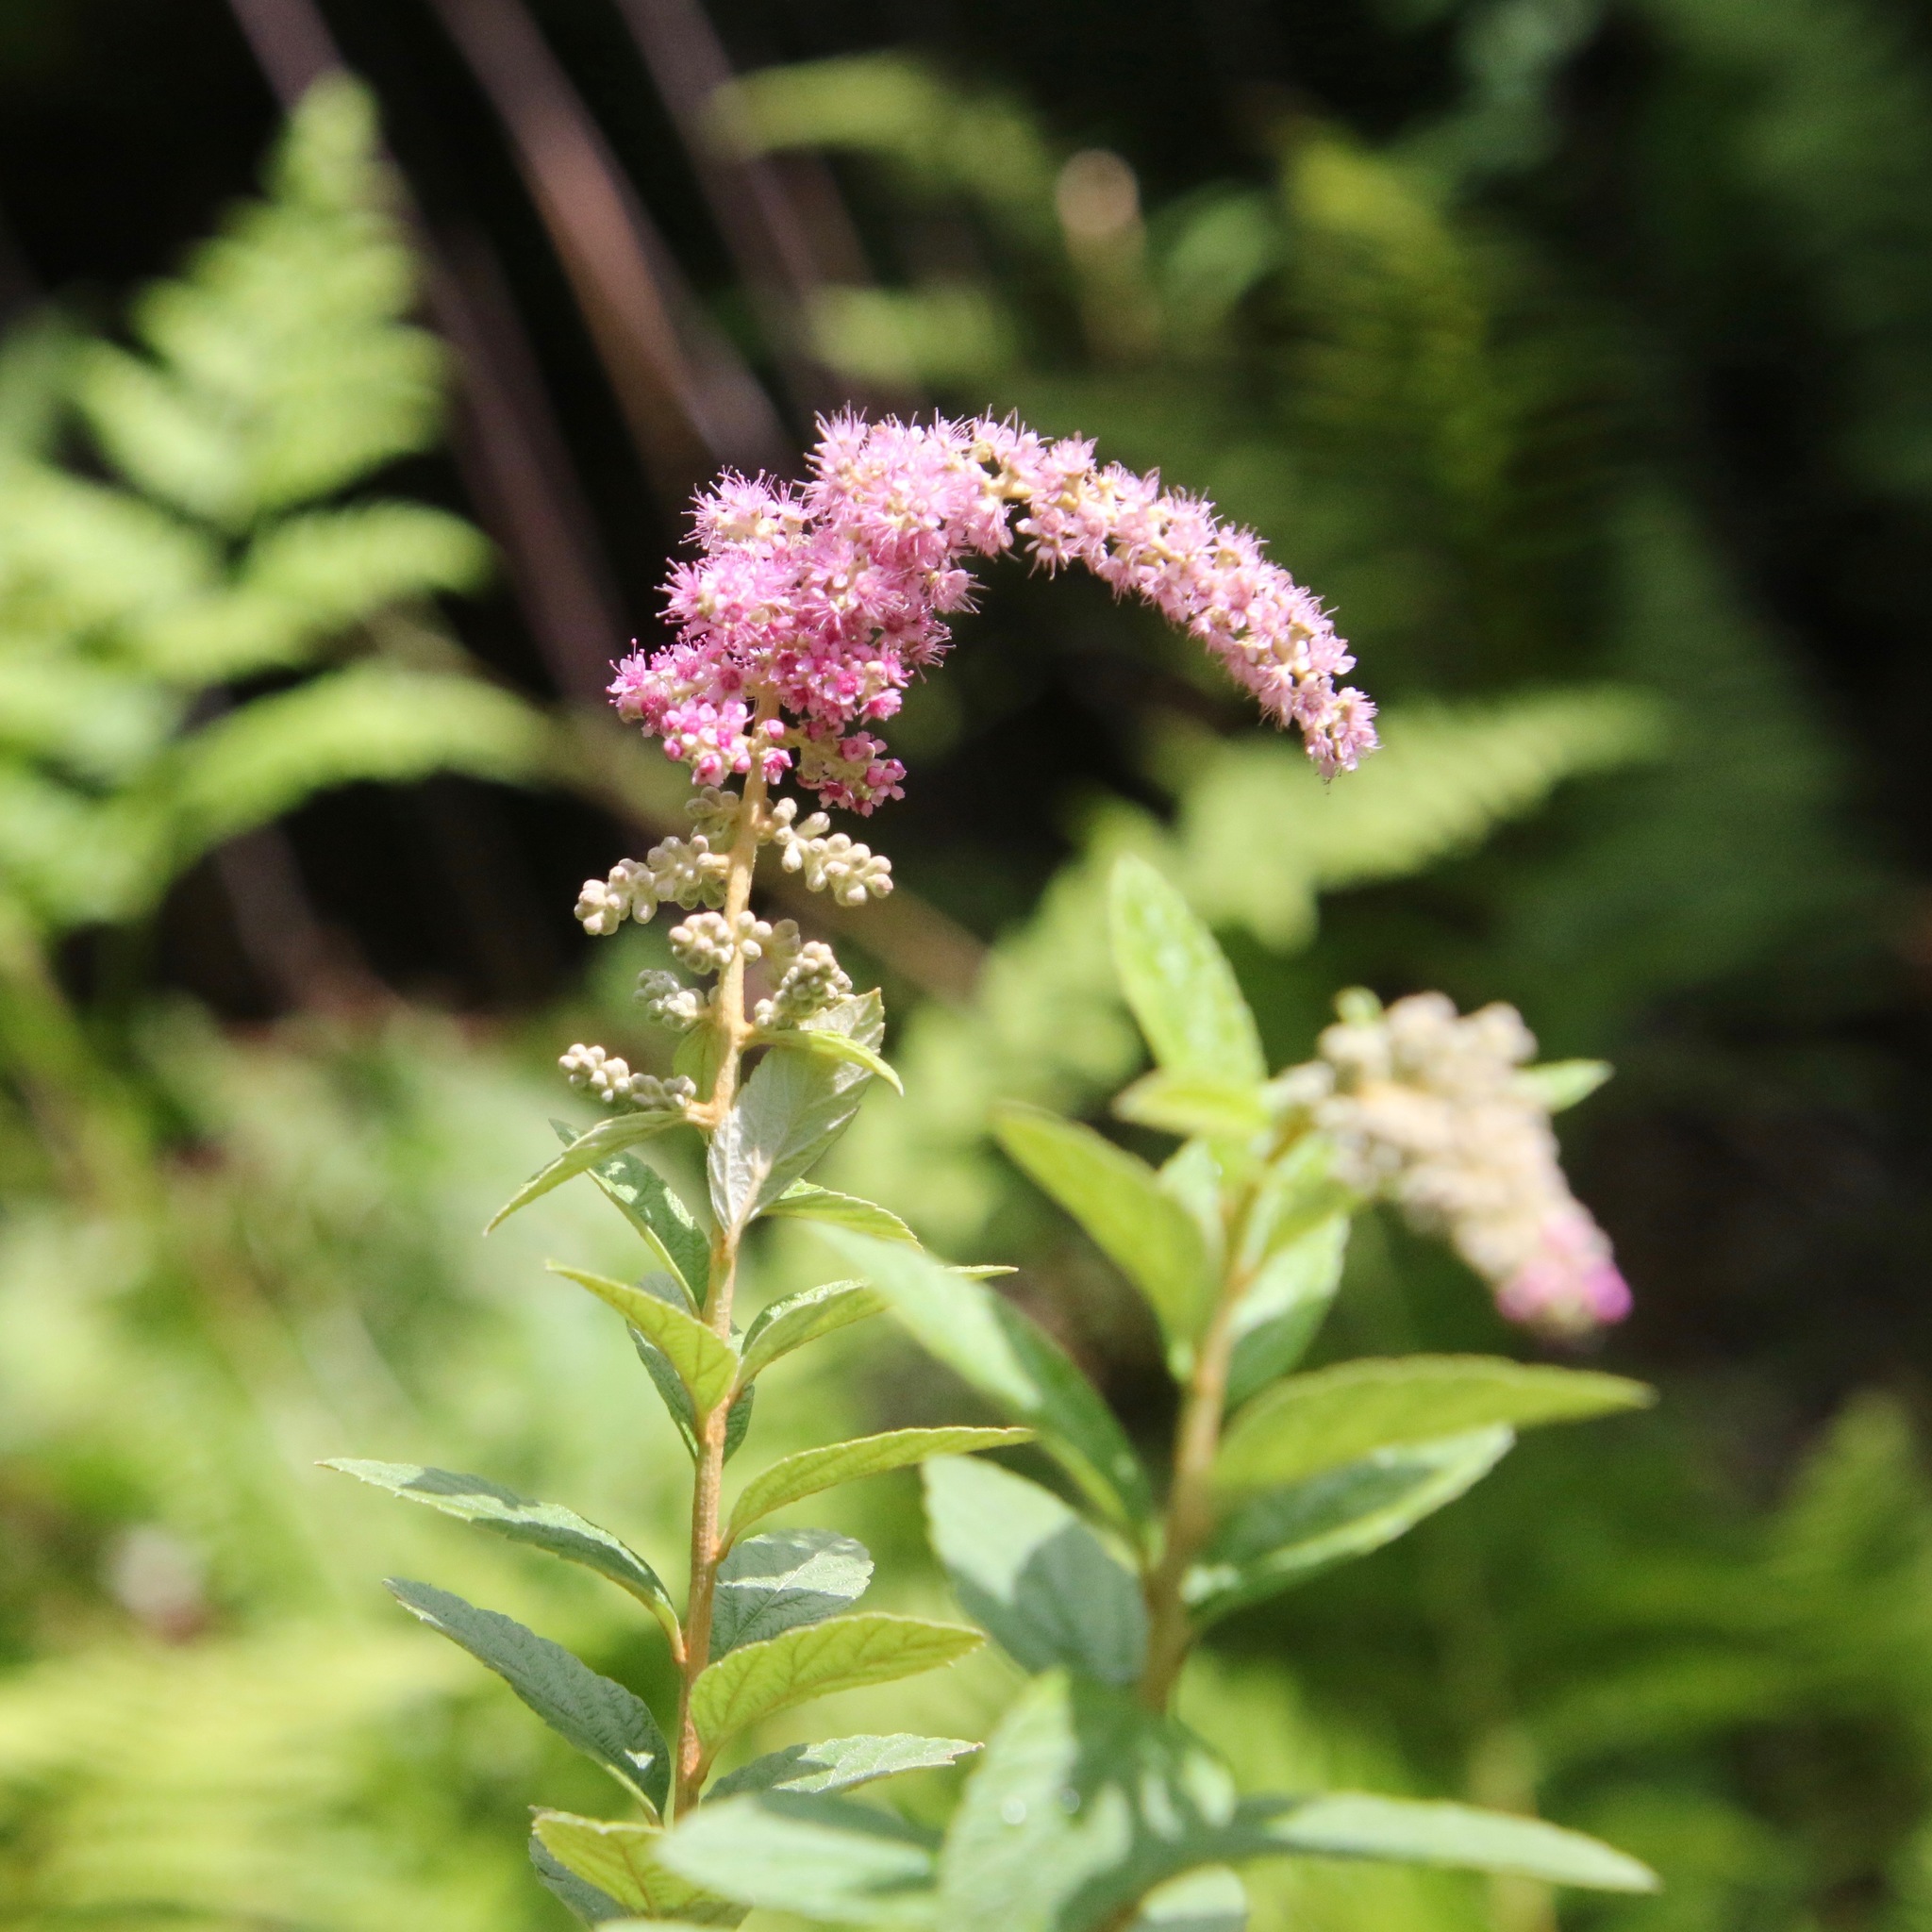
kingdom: Plantae
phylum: Tracheophyta
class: Magnoliopsida
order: Rosales
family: Rosaceae
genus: Spiraea
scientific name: Spiraea tomentosa
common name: Hardhack
